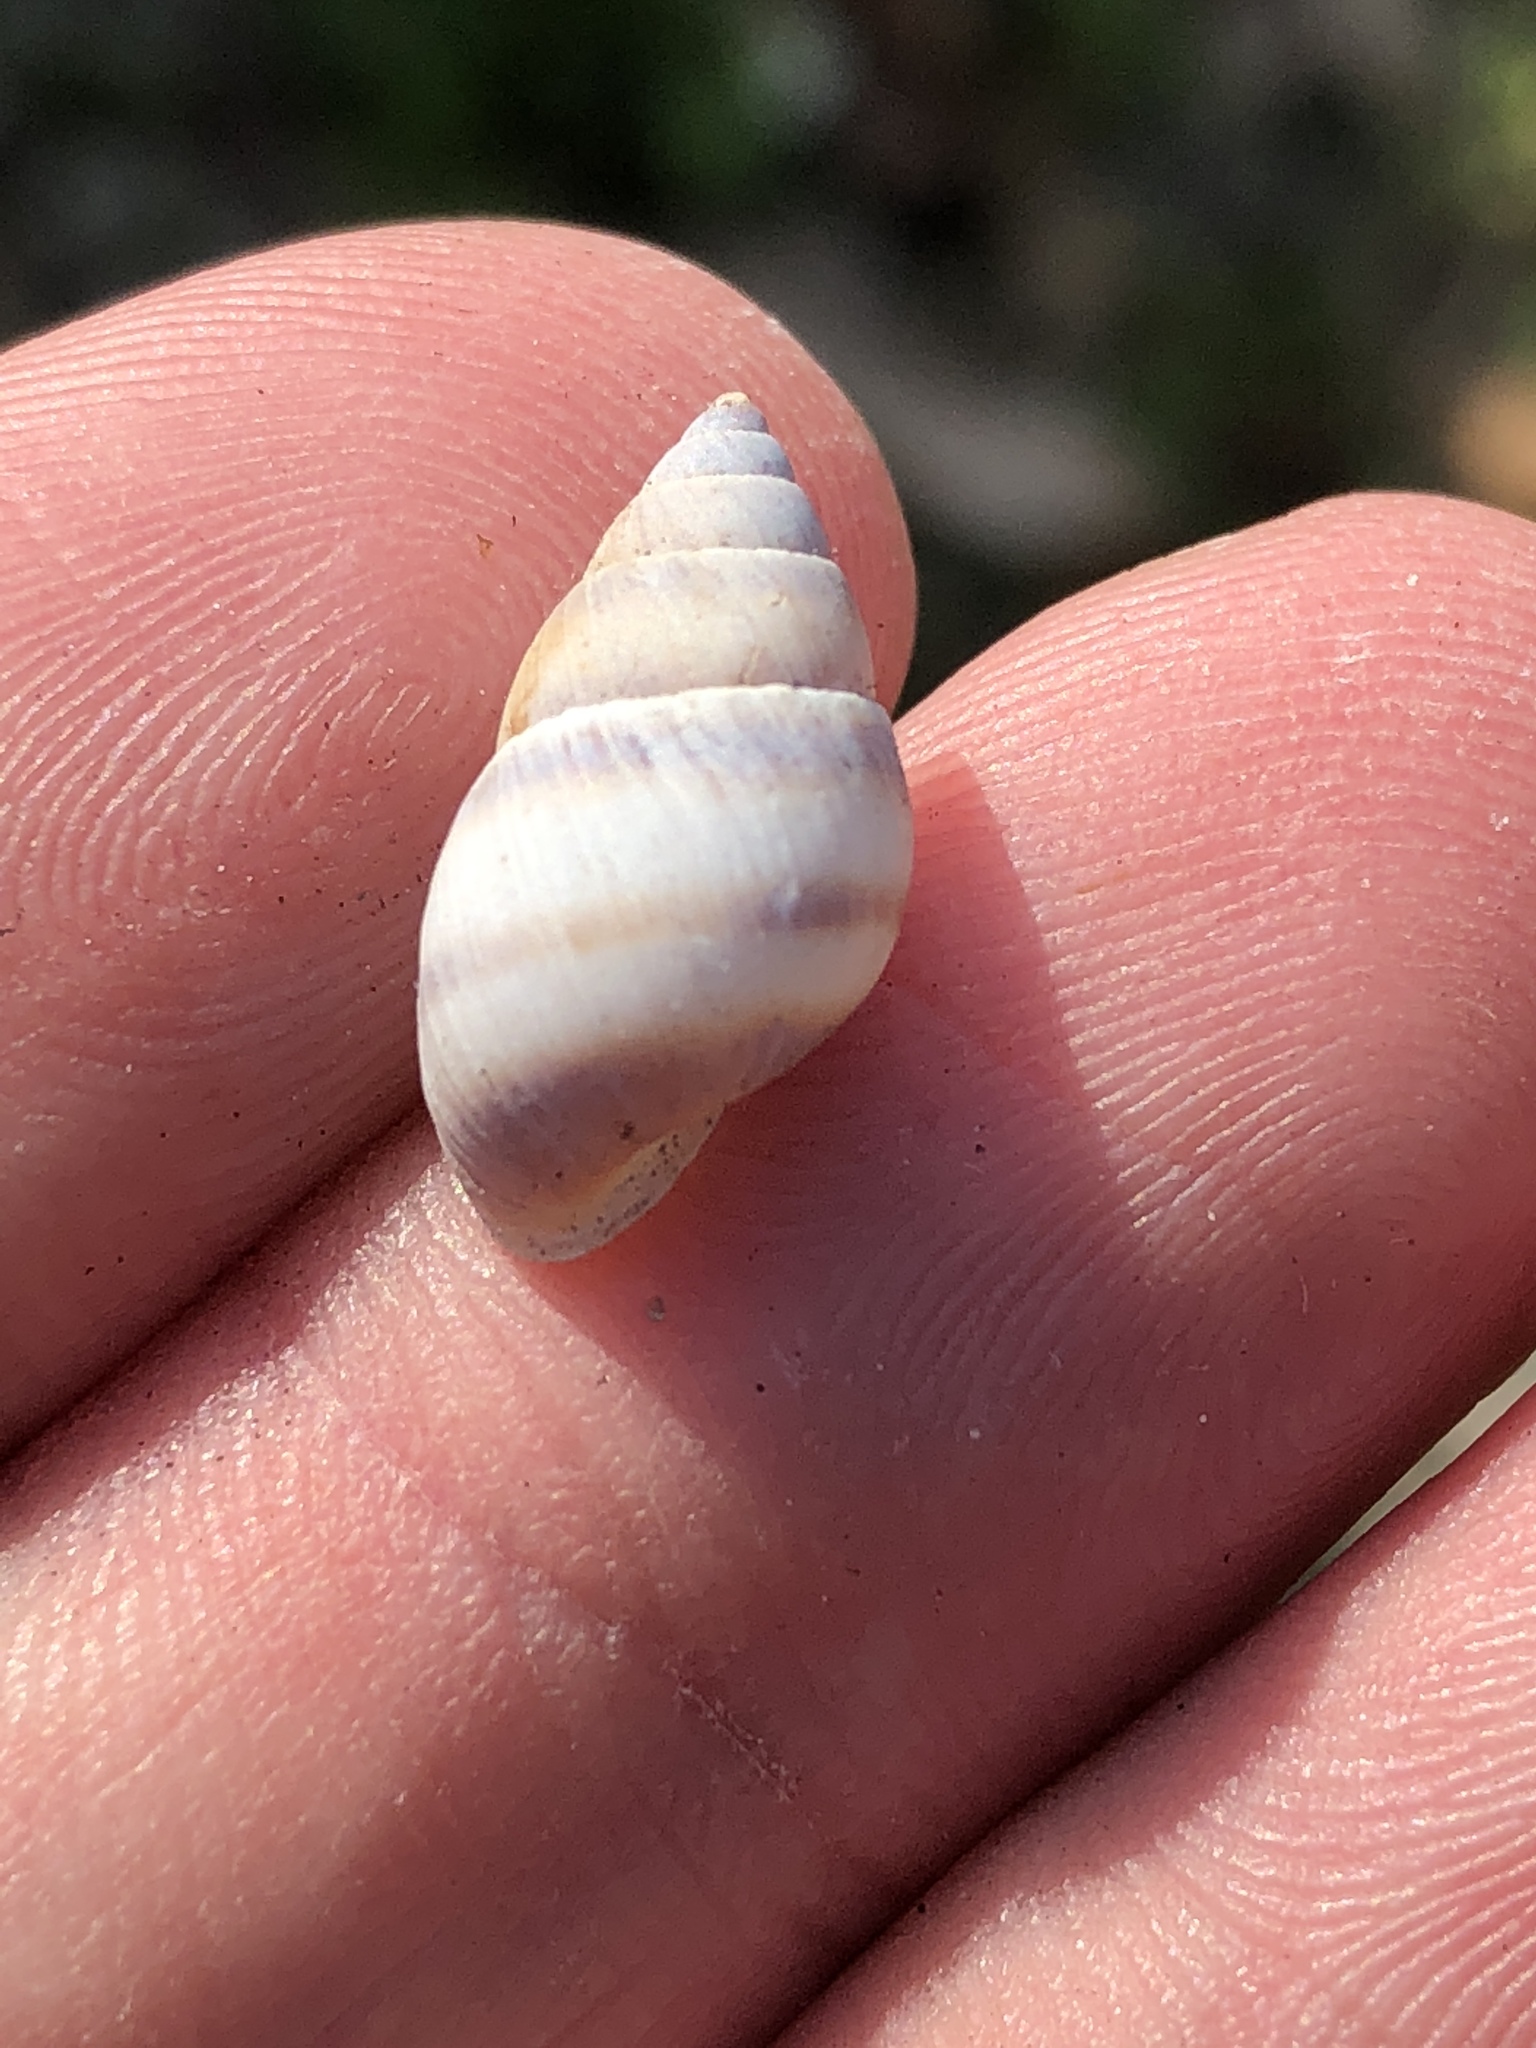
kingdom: Animalia
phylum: Mollusca
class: Gastropoda
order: Stylommatophora
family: Bulimulidae
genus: Bulimulus
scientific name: Bulimulus guadalupensis
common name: West indian bulimulus
